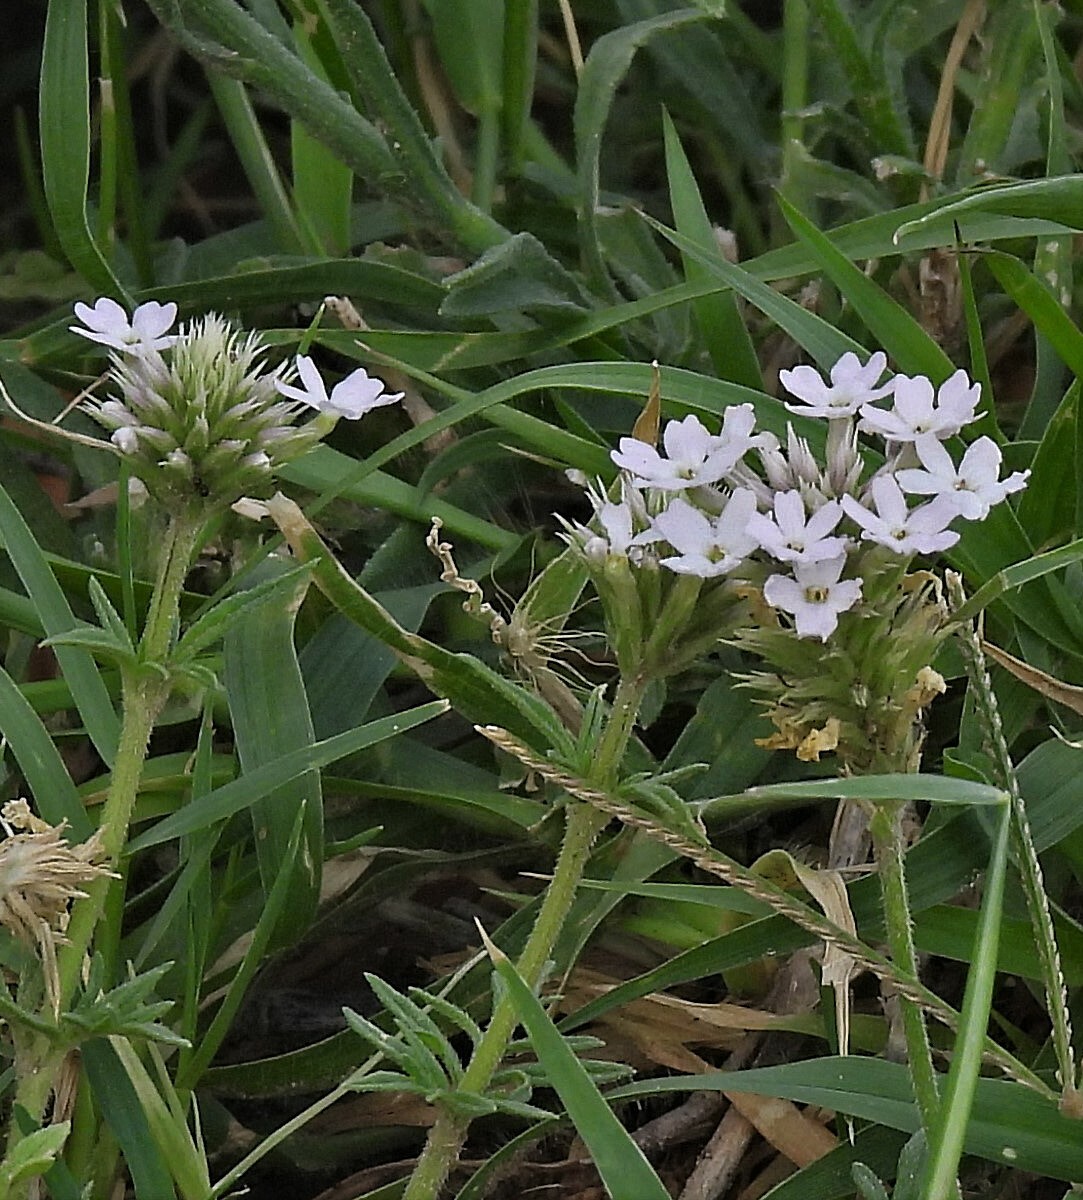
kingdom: Plantae
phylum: Tracheophyta
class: Magnoliopsida
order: Lamiales
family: Verbenaceae
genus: Verbena
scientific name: Verbena tenera
